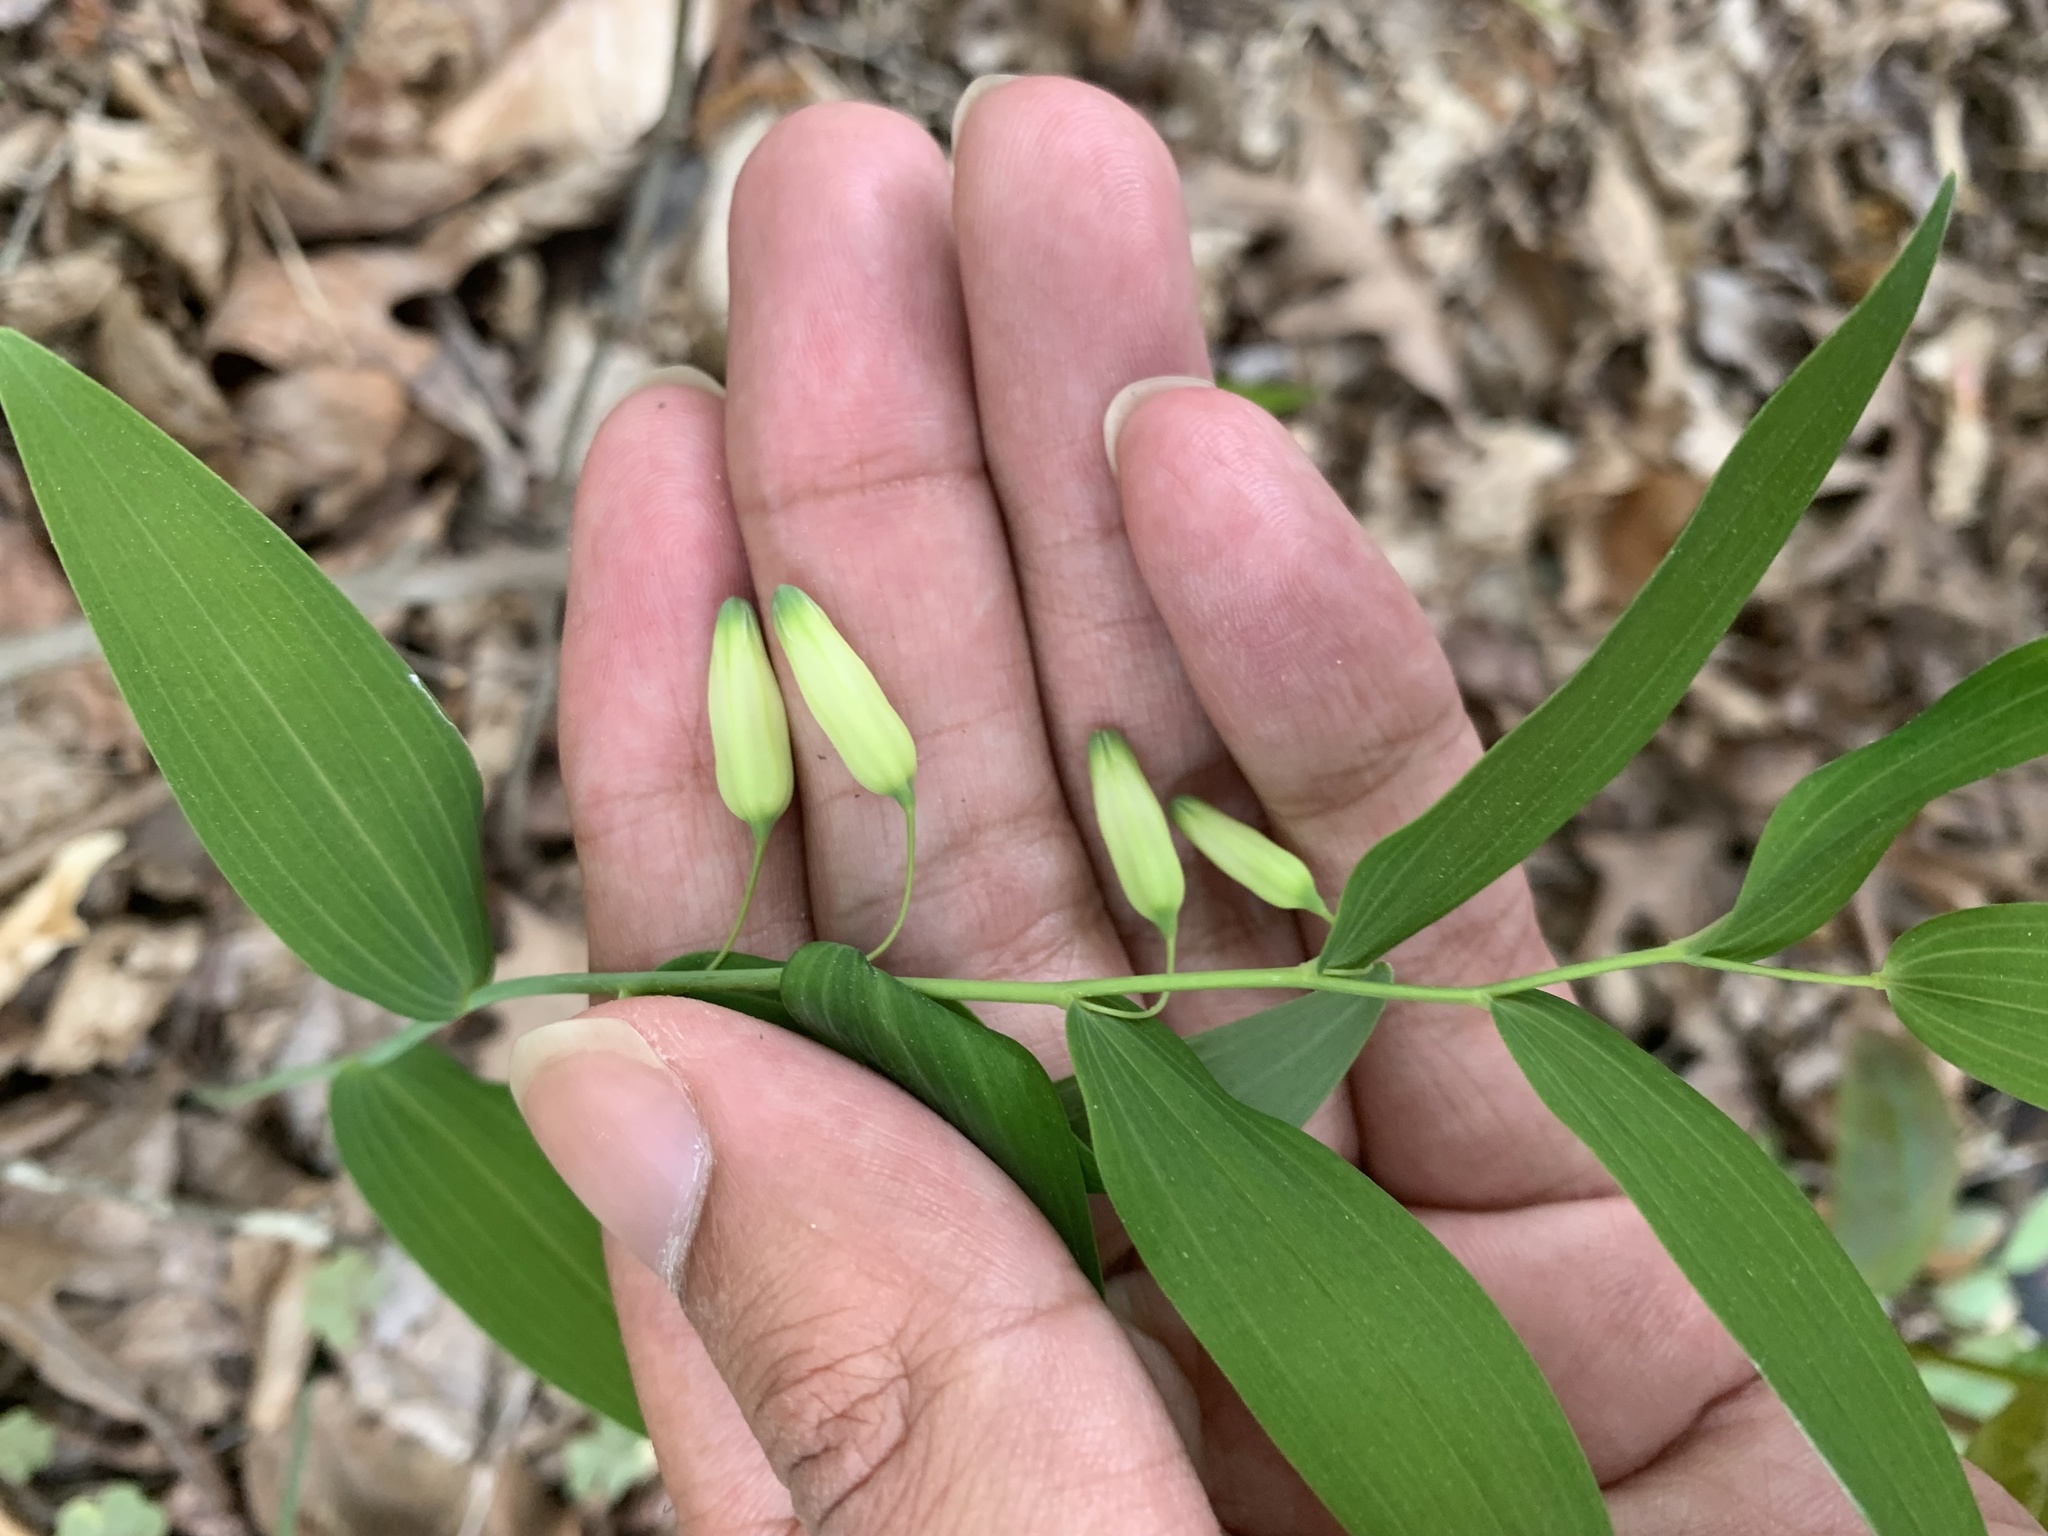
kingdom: Plantae
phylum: Tracheophyta
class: Liliopsida
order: Asparagales
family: Asparagaceae
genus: Polygonatum
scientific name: Polygonatum biflorum
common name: American solomon's-seal
